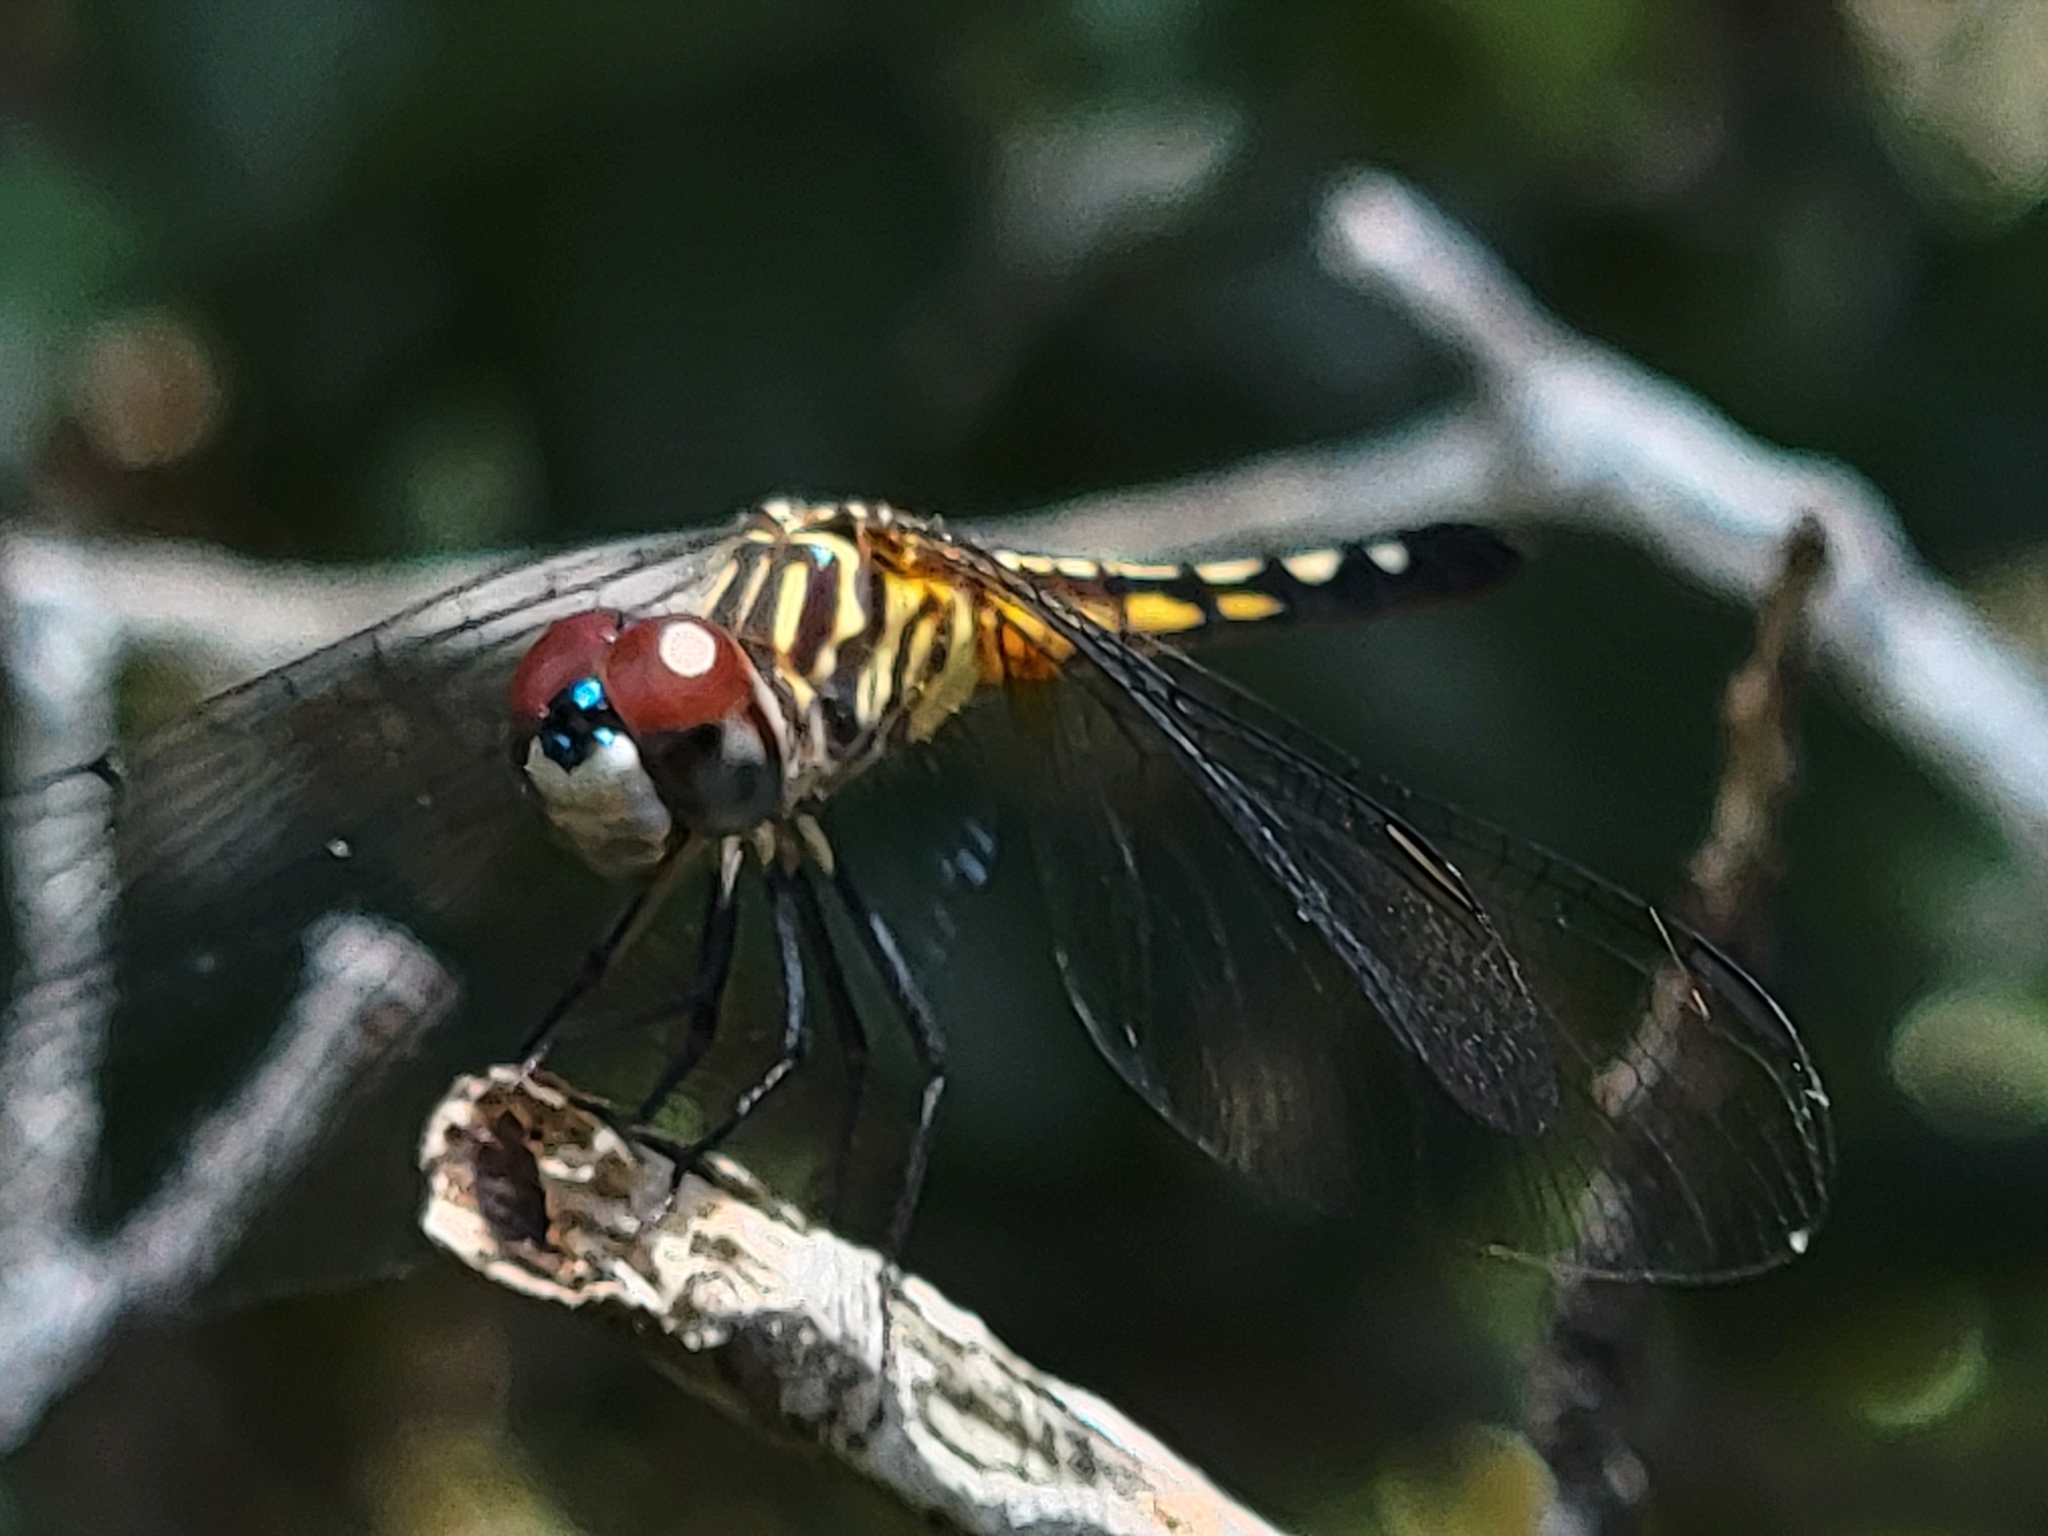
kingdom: Animalia
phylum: Arthropoda
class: Insecta
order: Odonata
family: Libellulidae
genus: Pachydiplax
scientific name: Pachydiplax longipennis
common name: Blue dasher
